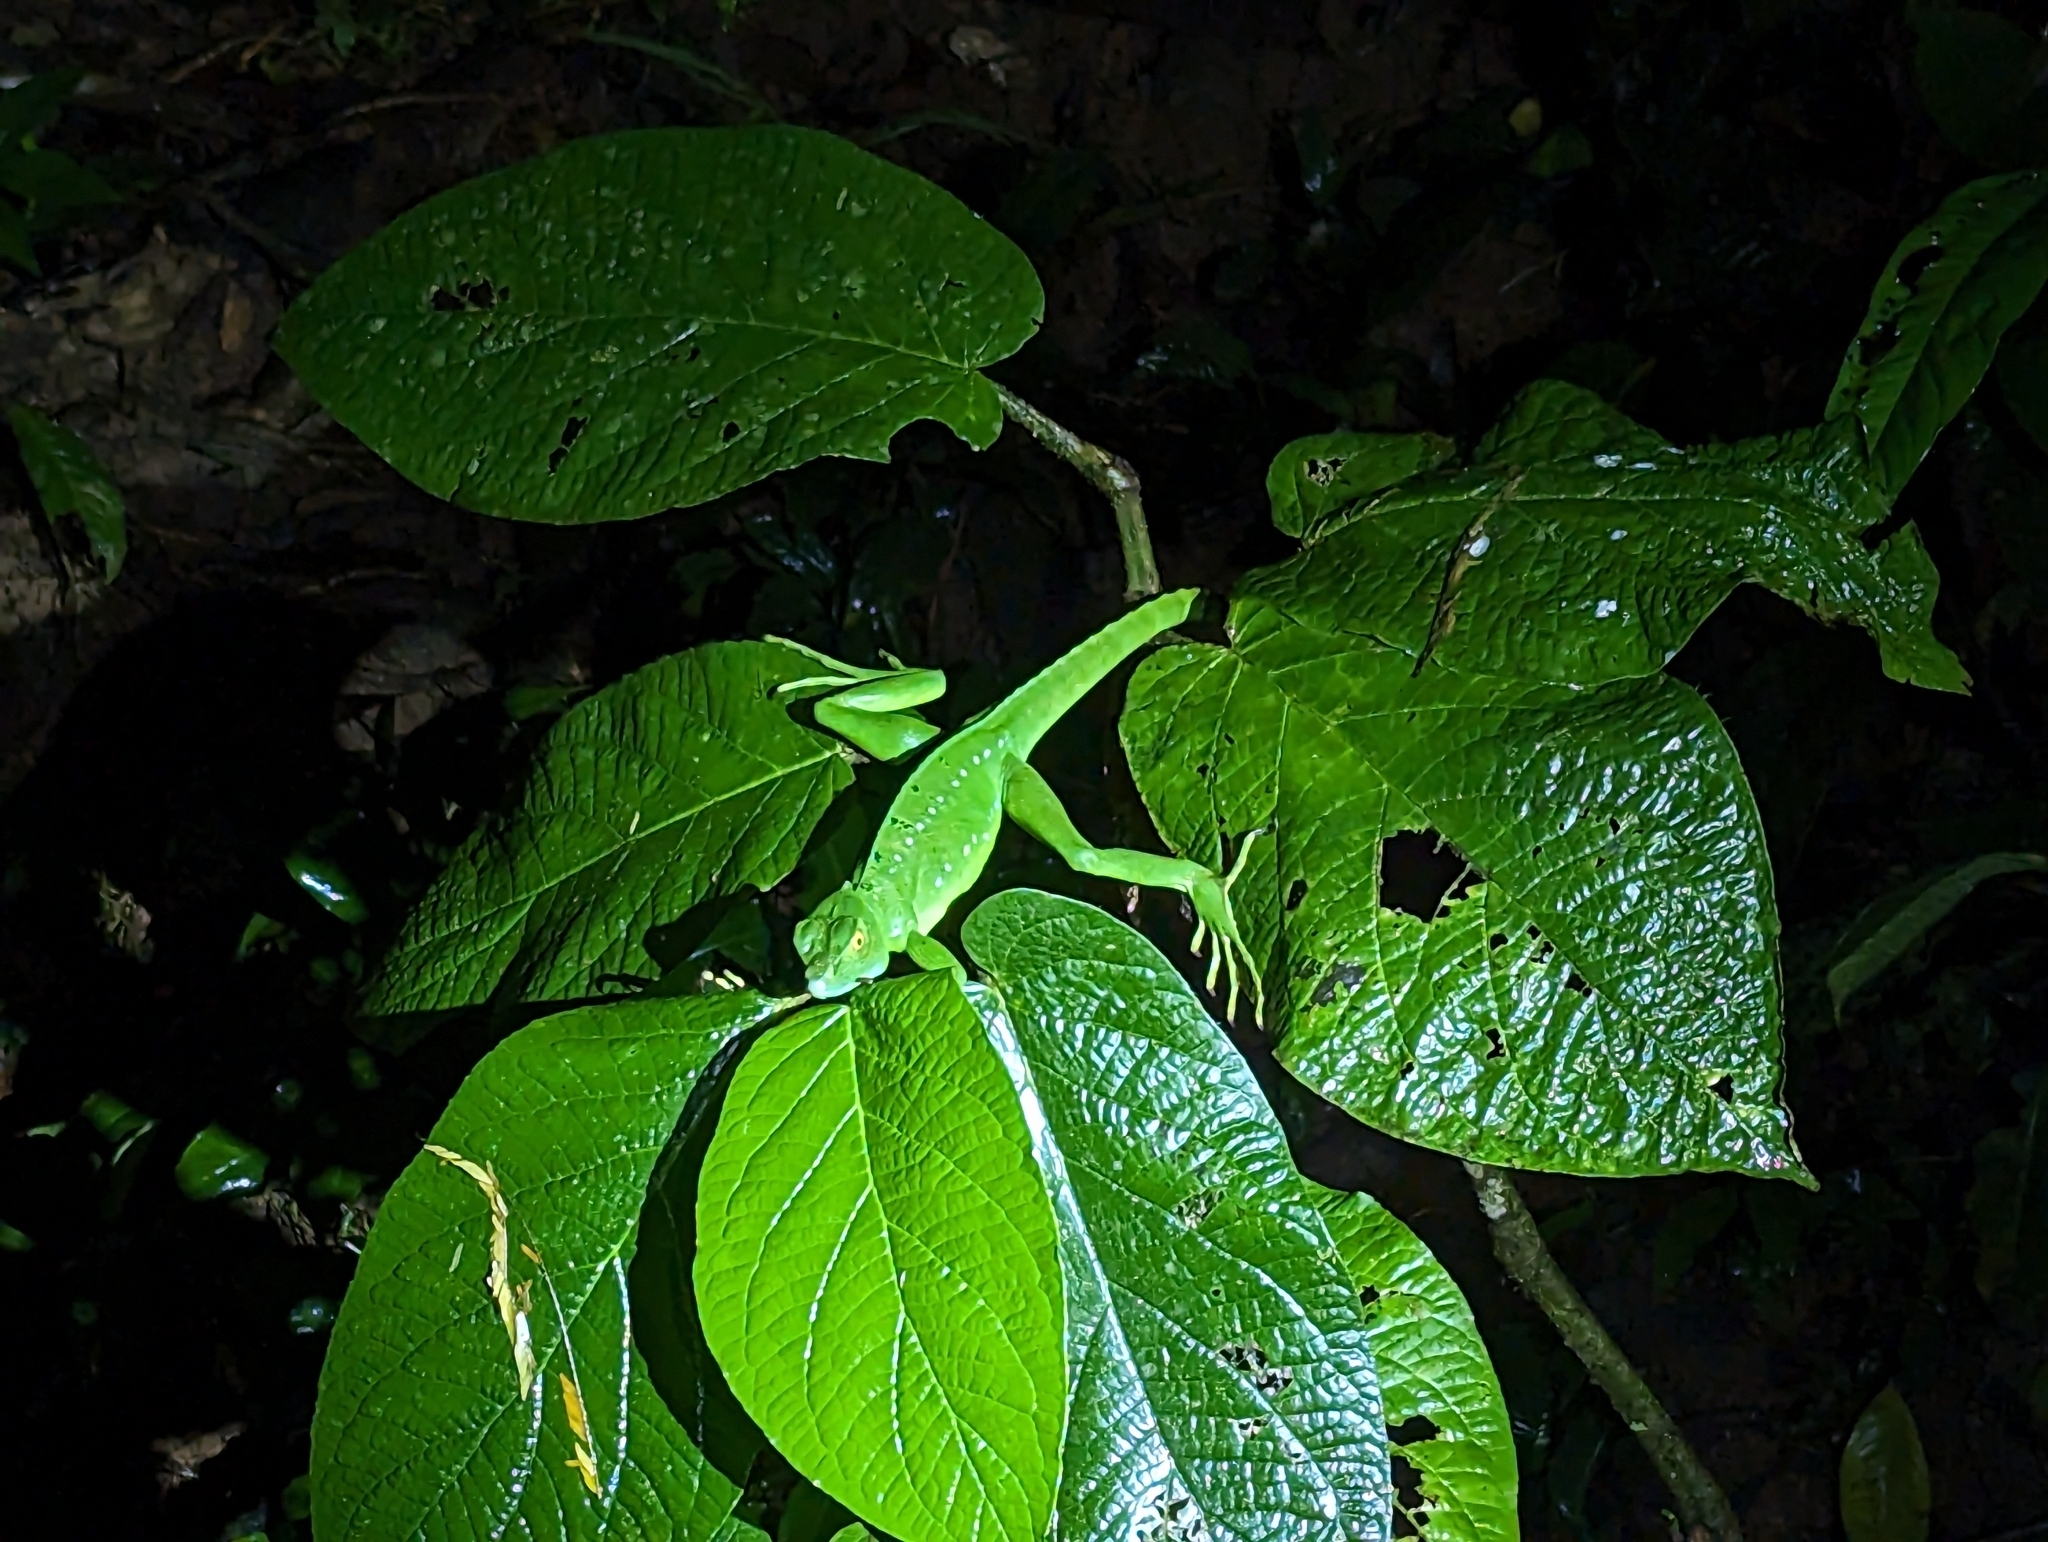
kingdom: Animalia
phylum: Chordata
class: Squamata
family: Corytophanidae
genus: Basiliscus
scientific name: Basiliscus plumifrons
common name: Green basilisk
